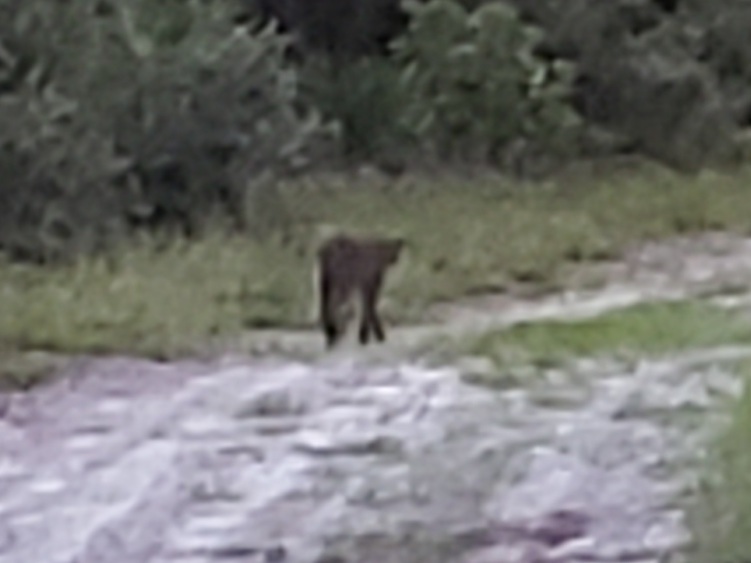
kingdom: Animalia
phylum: Chordata
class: Mammalia
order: Carnivora
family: Felidae
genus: Lynx
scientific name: Lynx rufus
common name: Bobcat
